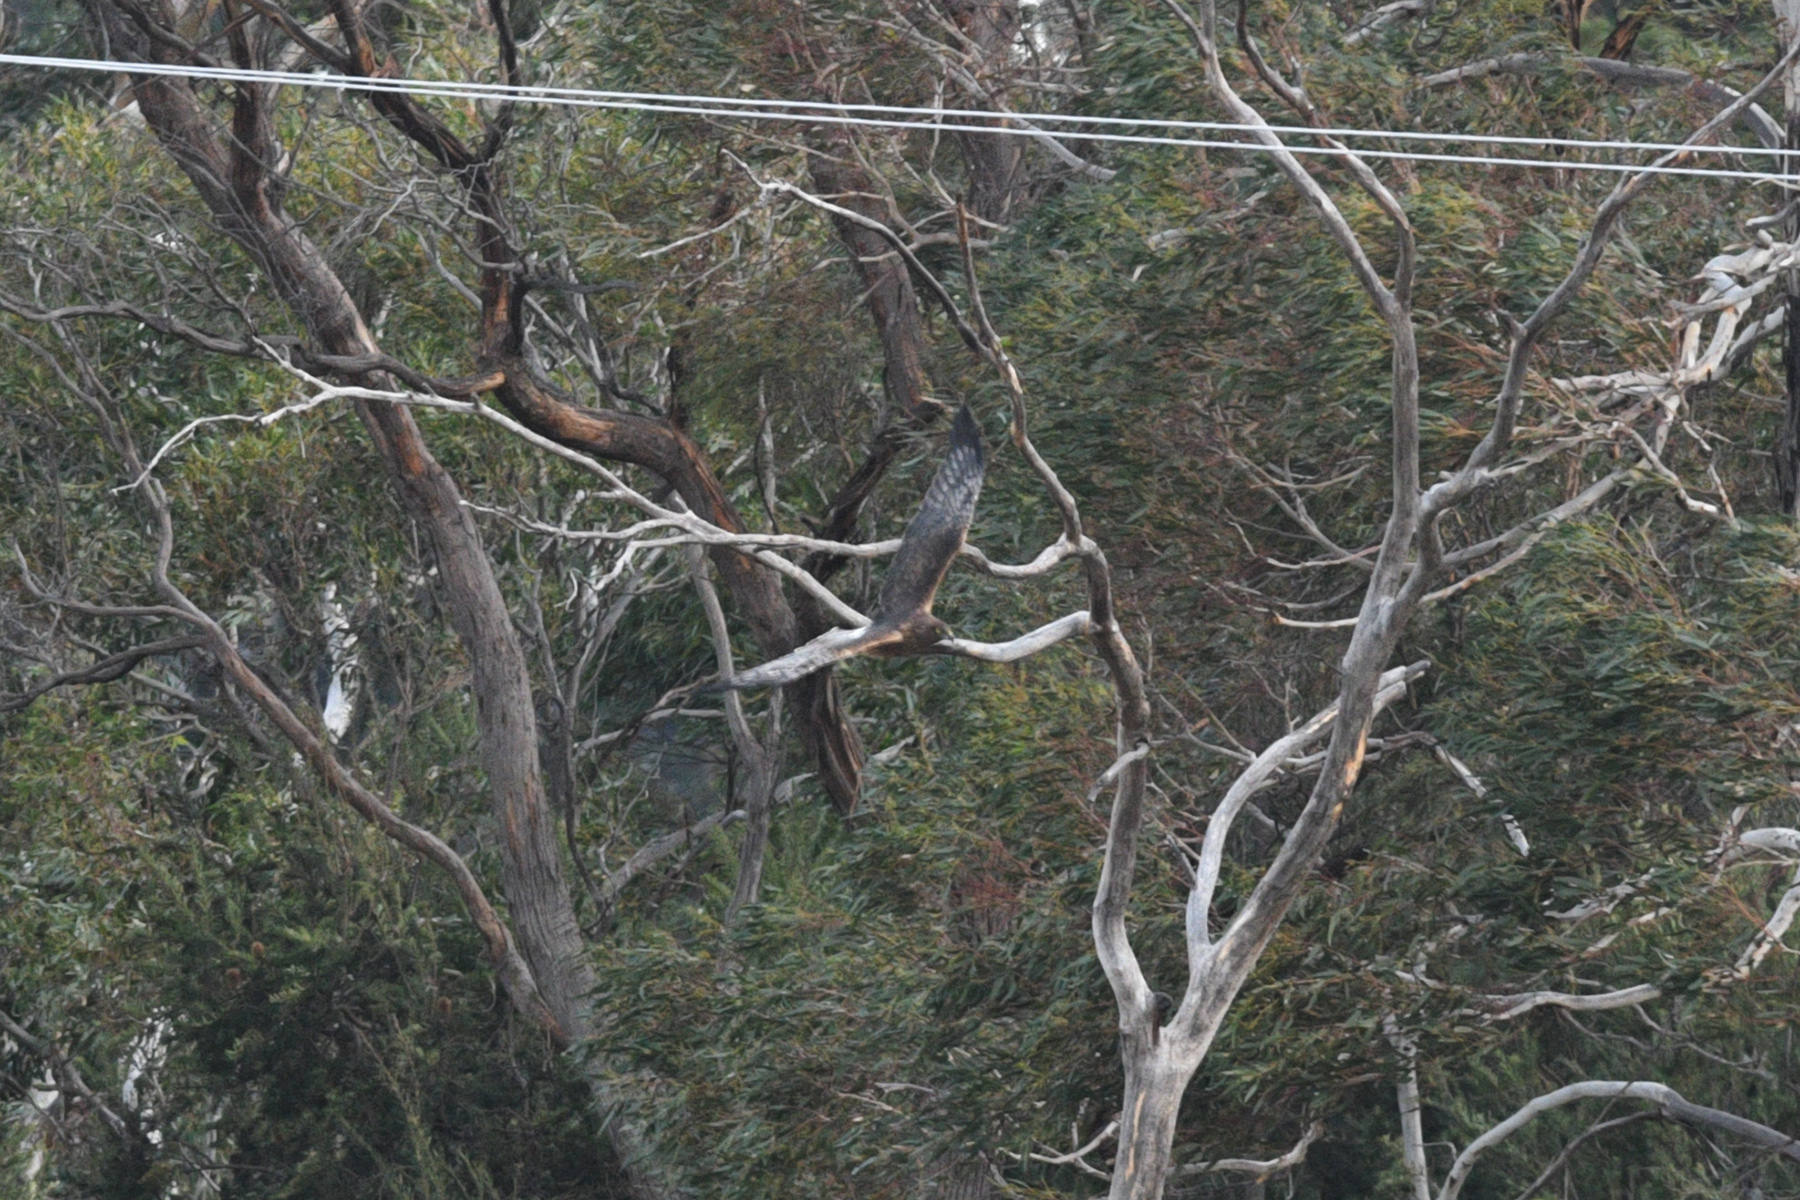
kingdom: Animalia
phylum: Chordata
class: Aves
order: Accipitriformes
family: Accipitridae
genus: Circus
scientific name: Circus approximans
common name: Swamp harrier
